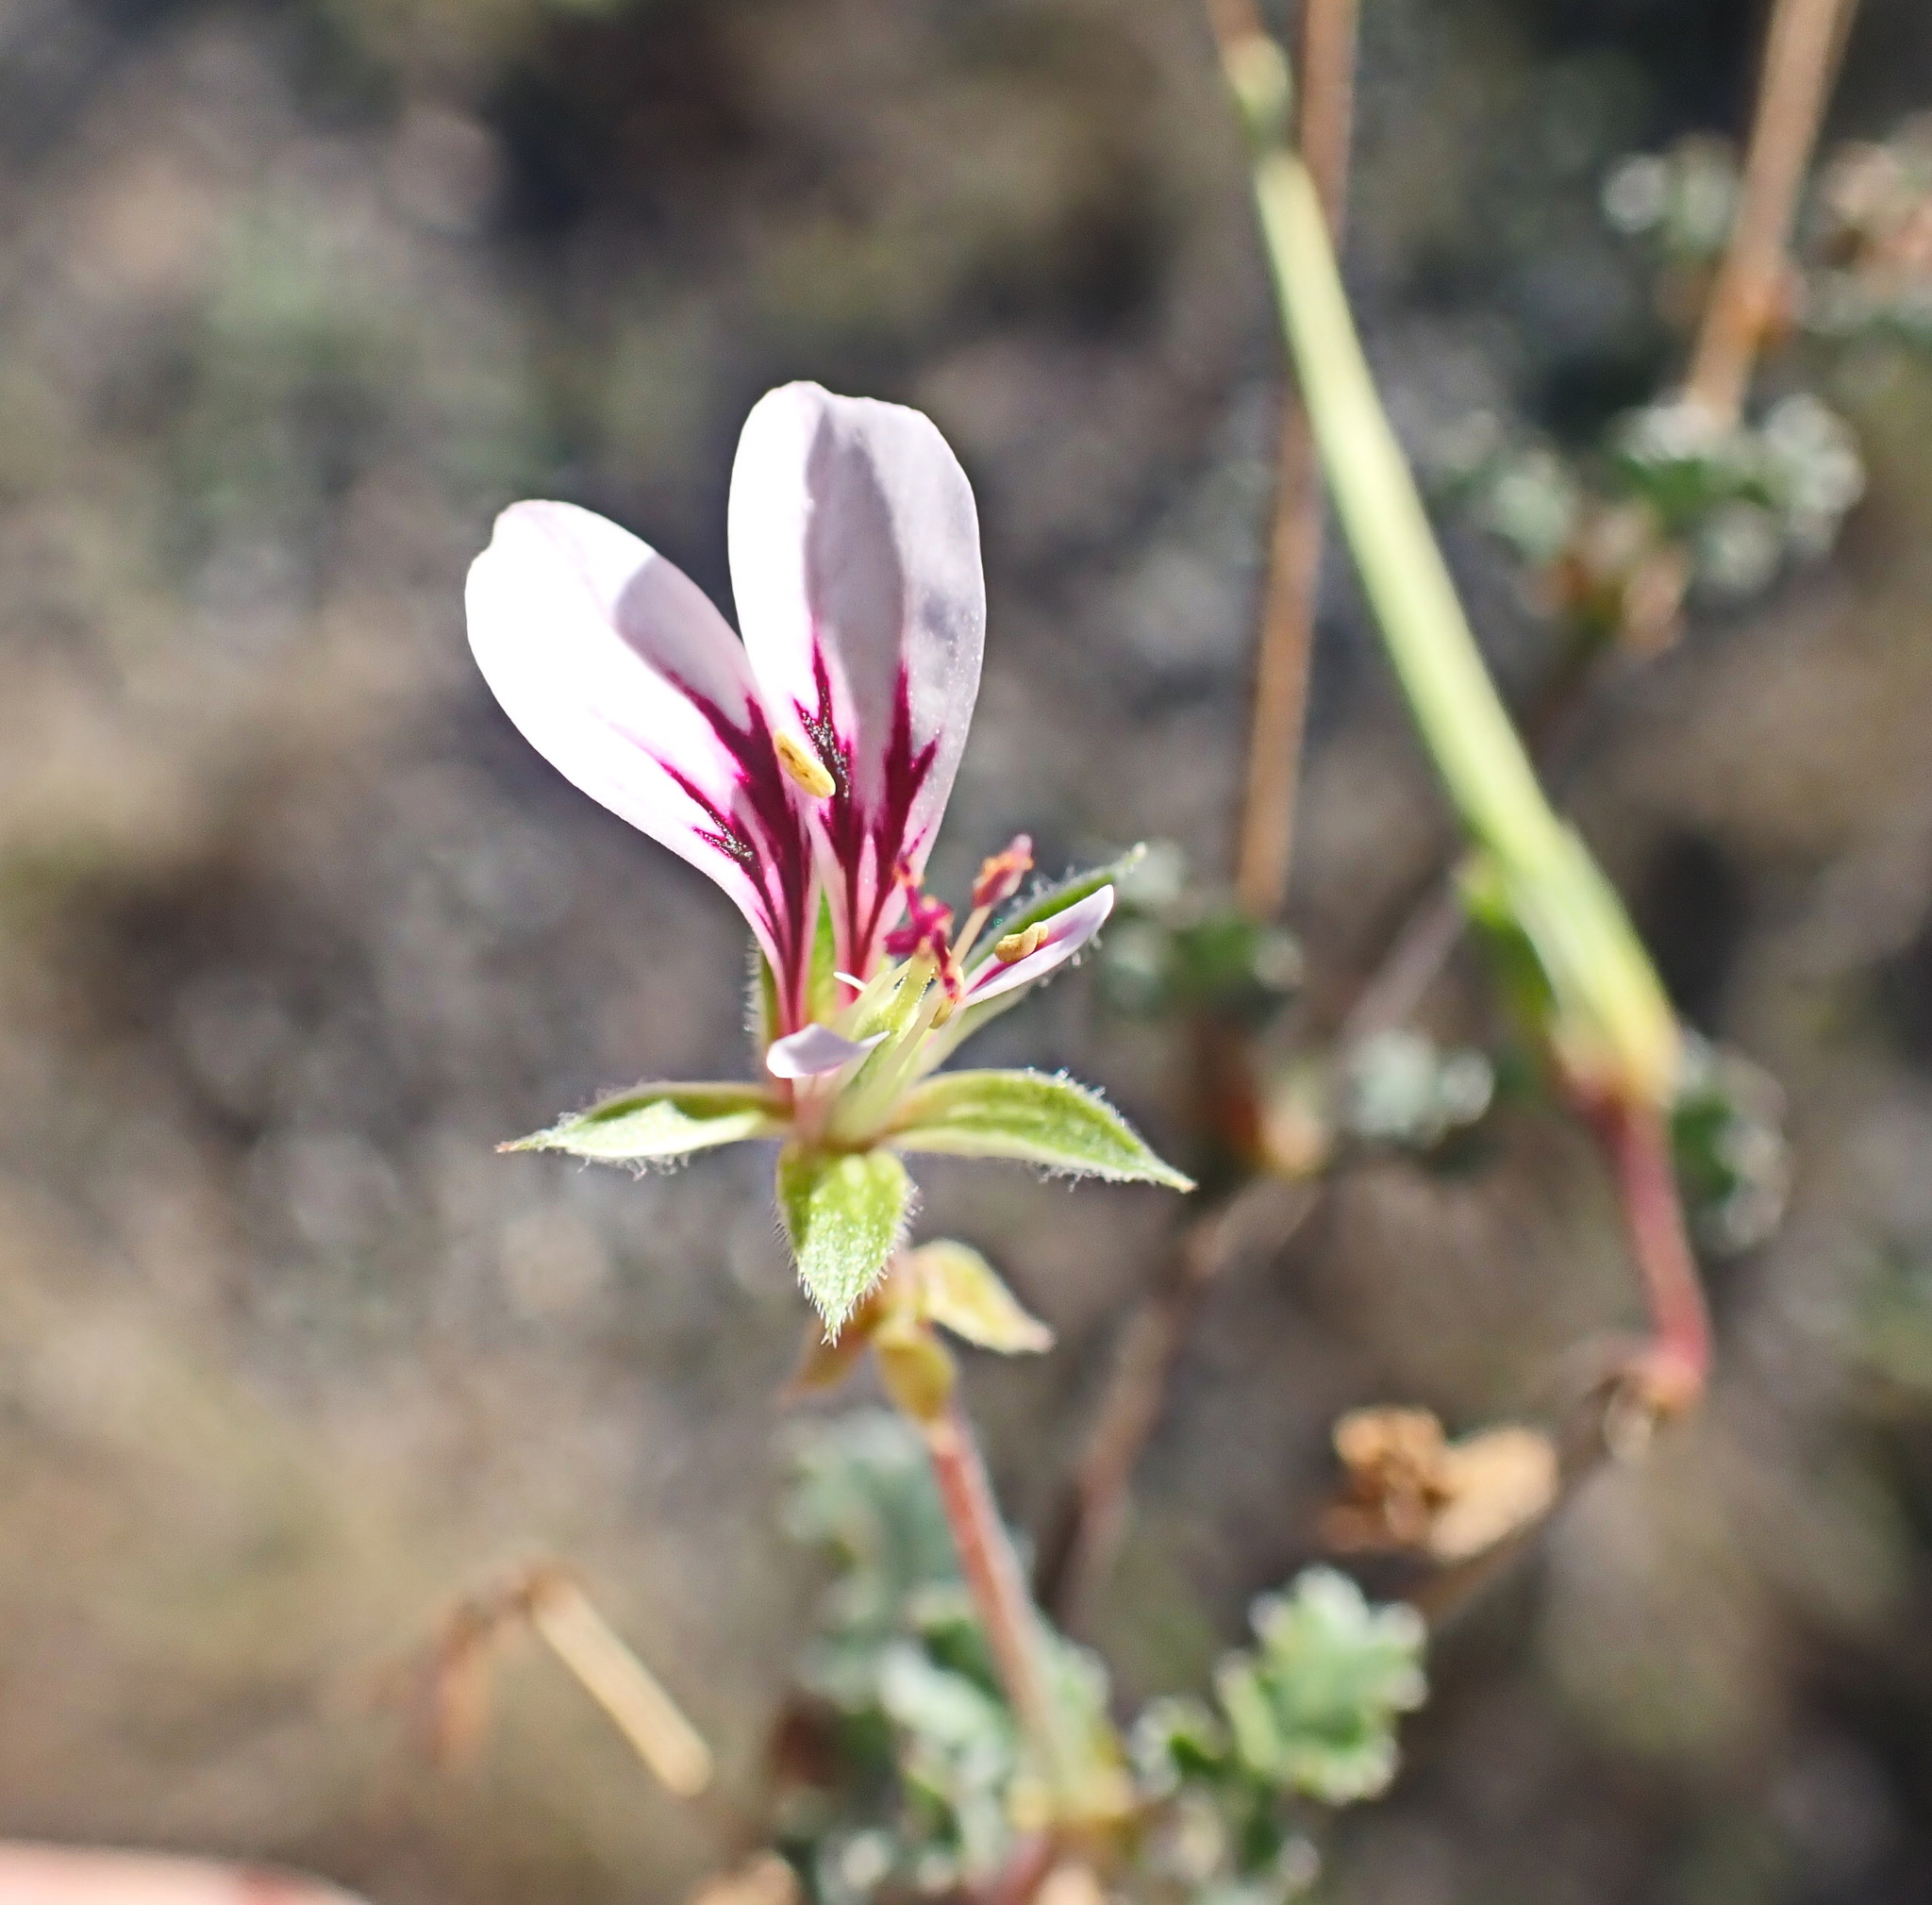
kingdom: Plantae
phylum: Tracheophyta
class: Magnoliopsida
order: Geraniales
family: Geraniaceae
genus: Pelargonium
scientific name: Pelargonium candicans
